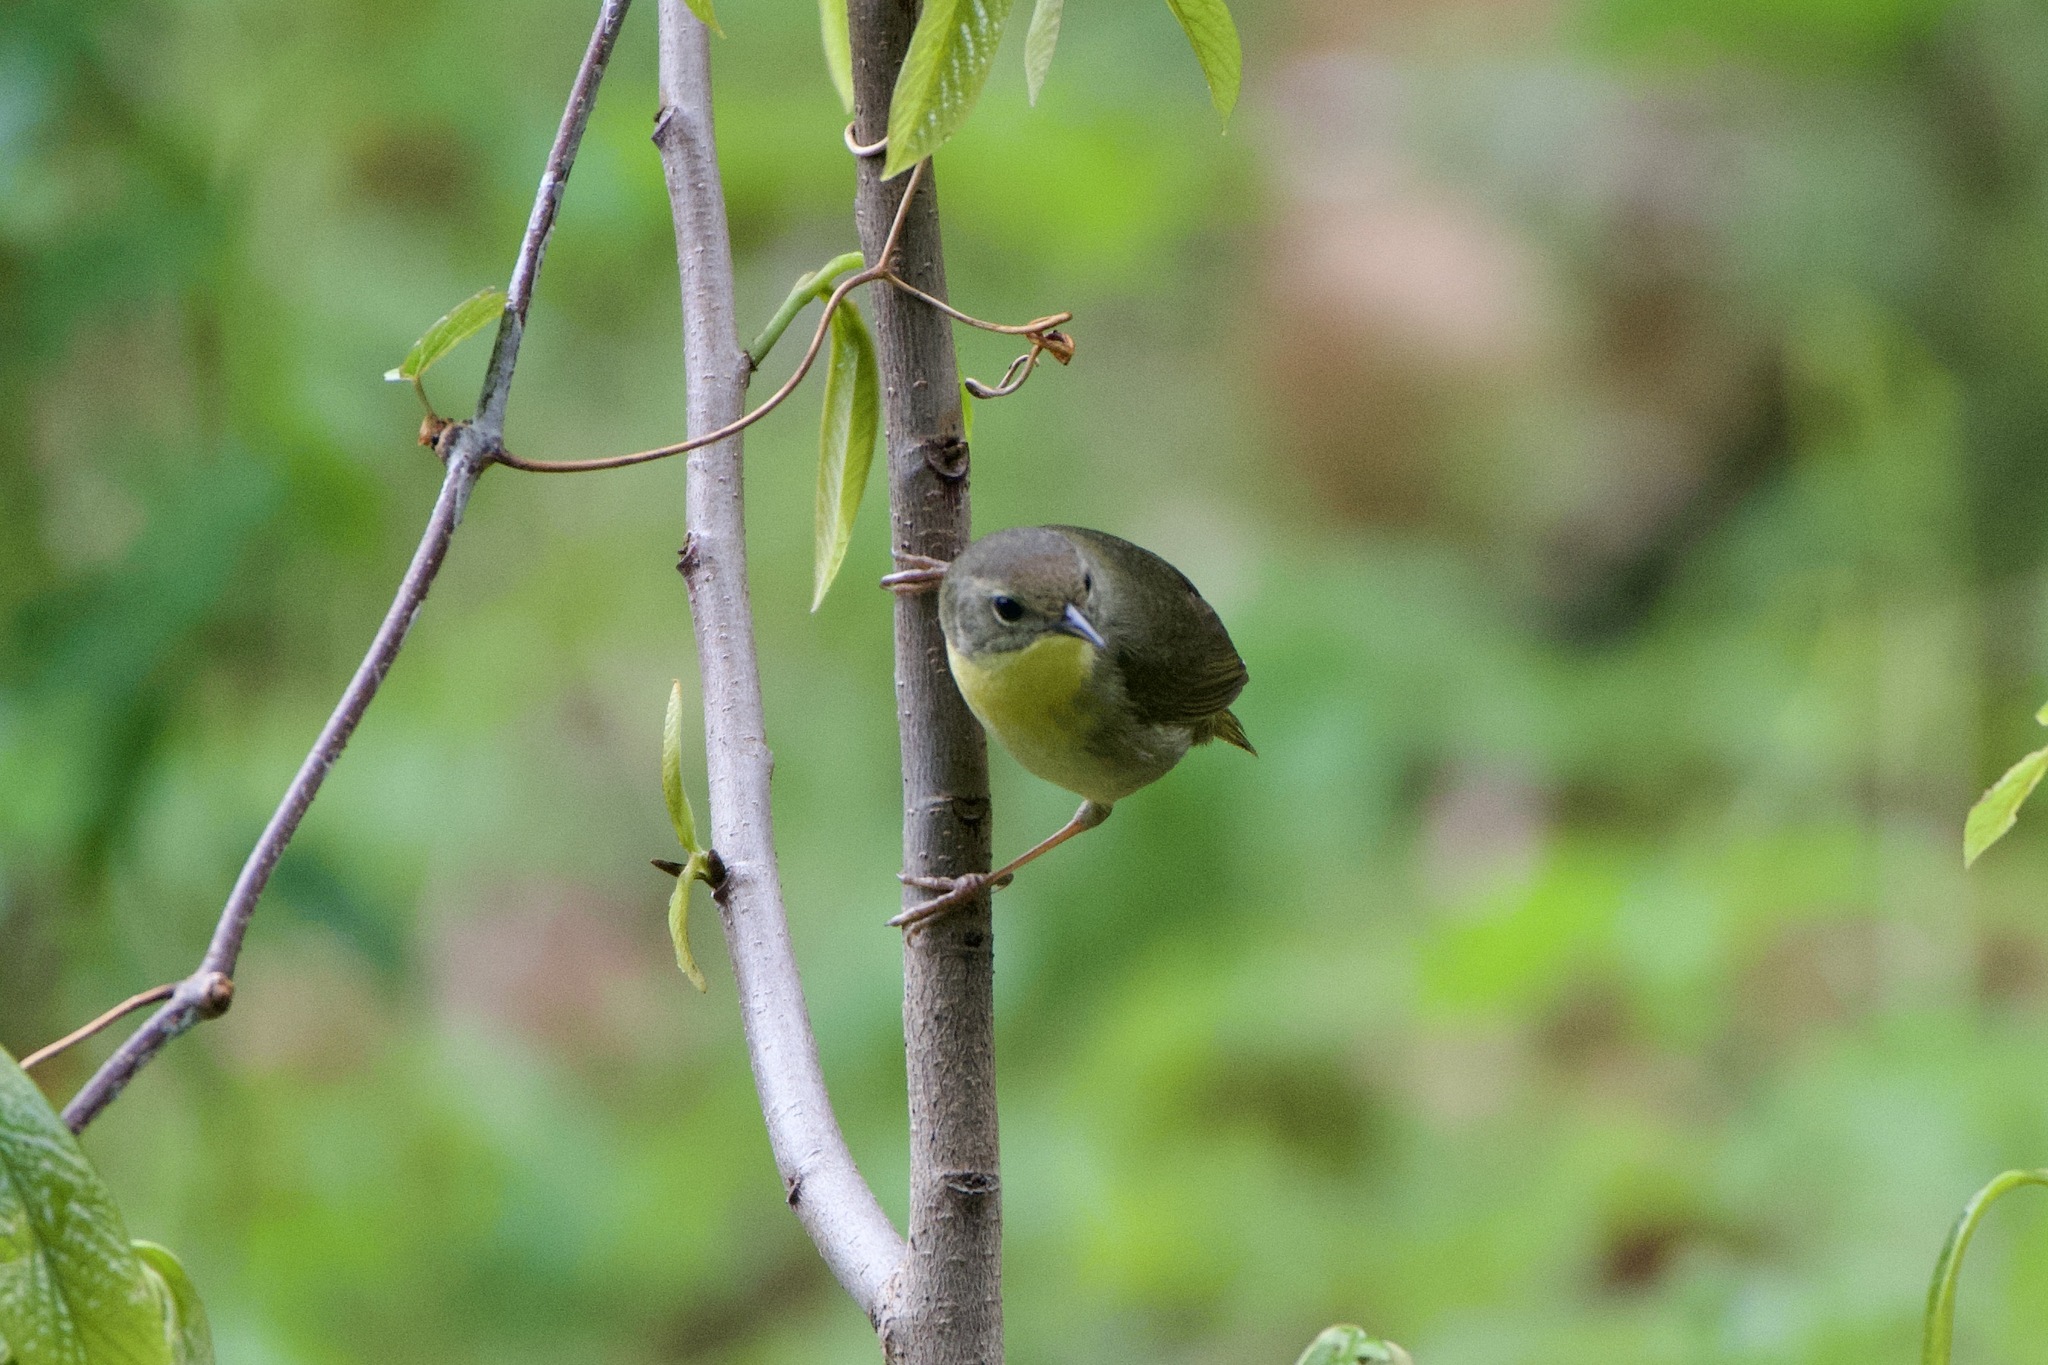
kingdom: Animalia
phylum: Chordata
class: Aves
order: Passeriformes
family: Parulidae
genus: Geothlypis
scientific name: Geothlypis trichas
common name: Common yellowthroat
